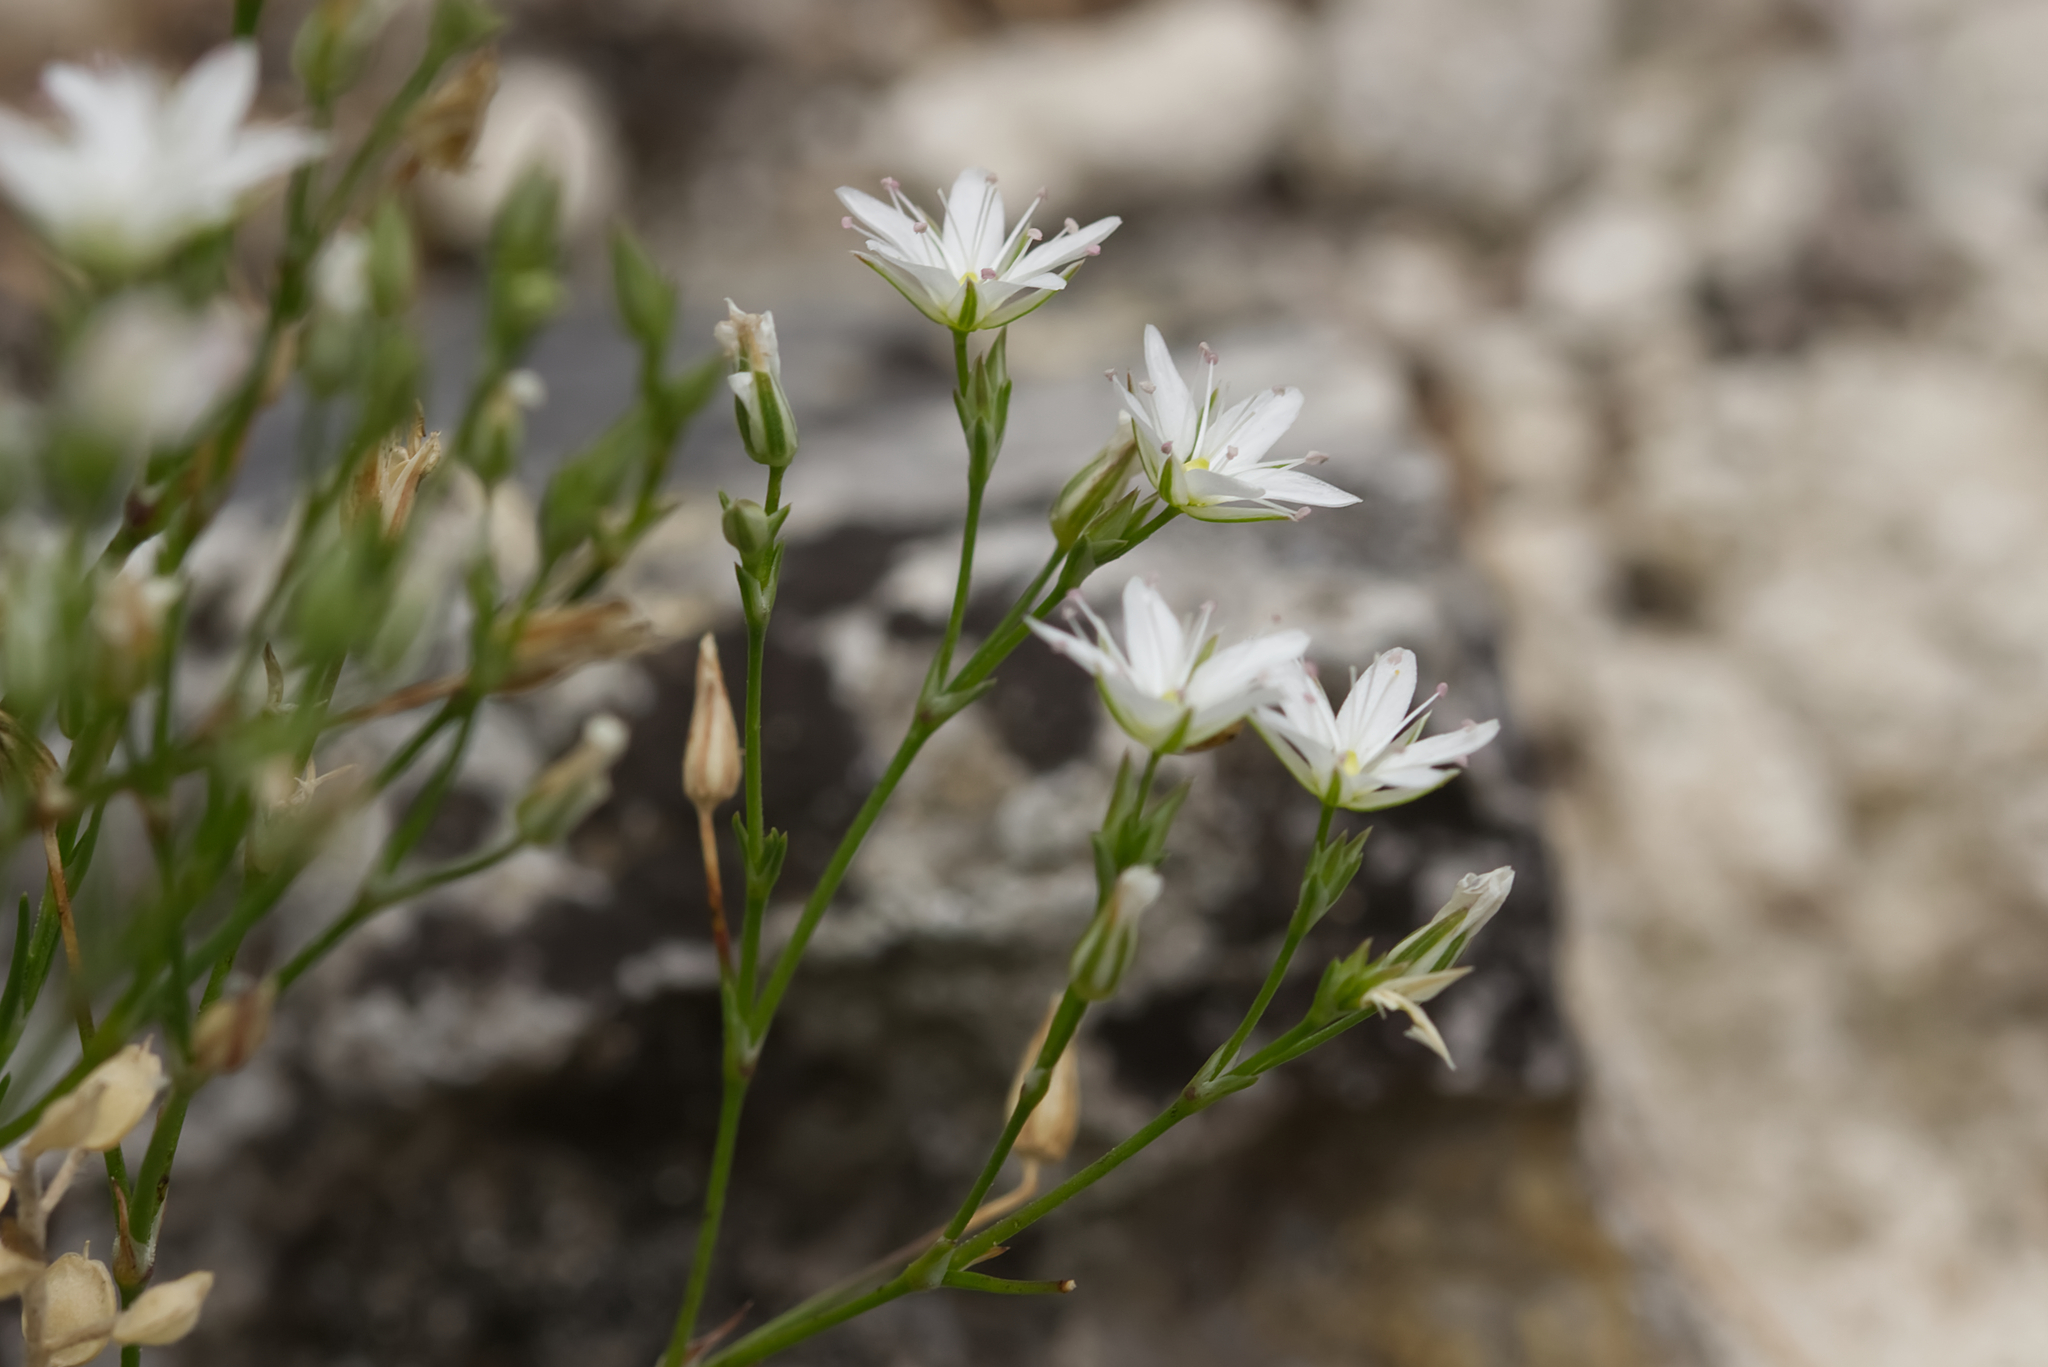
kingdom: Plantae
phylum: Tracheophyta
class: Magnoliopsida
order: Caryophyllales
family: Caryophyllaceae
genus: Minuartia
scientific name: Minuartia setacea
